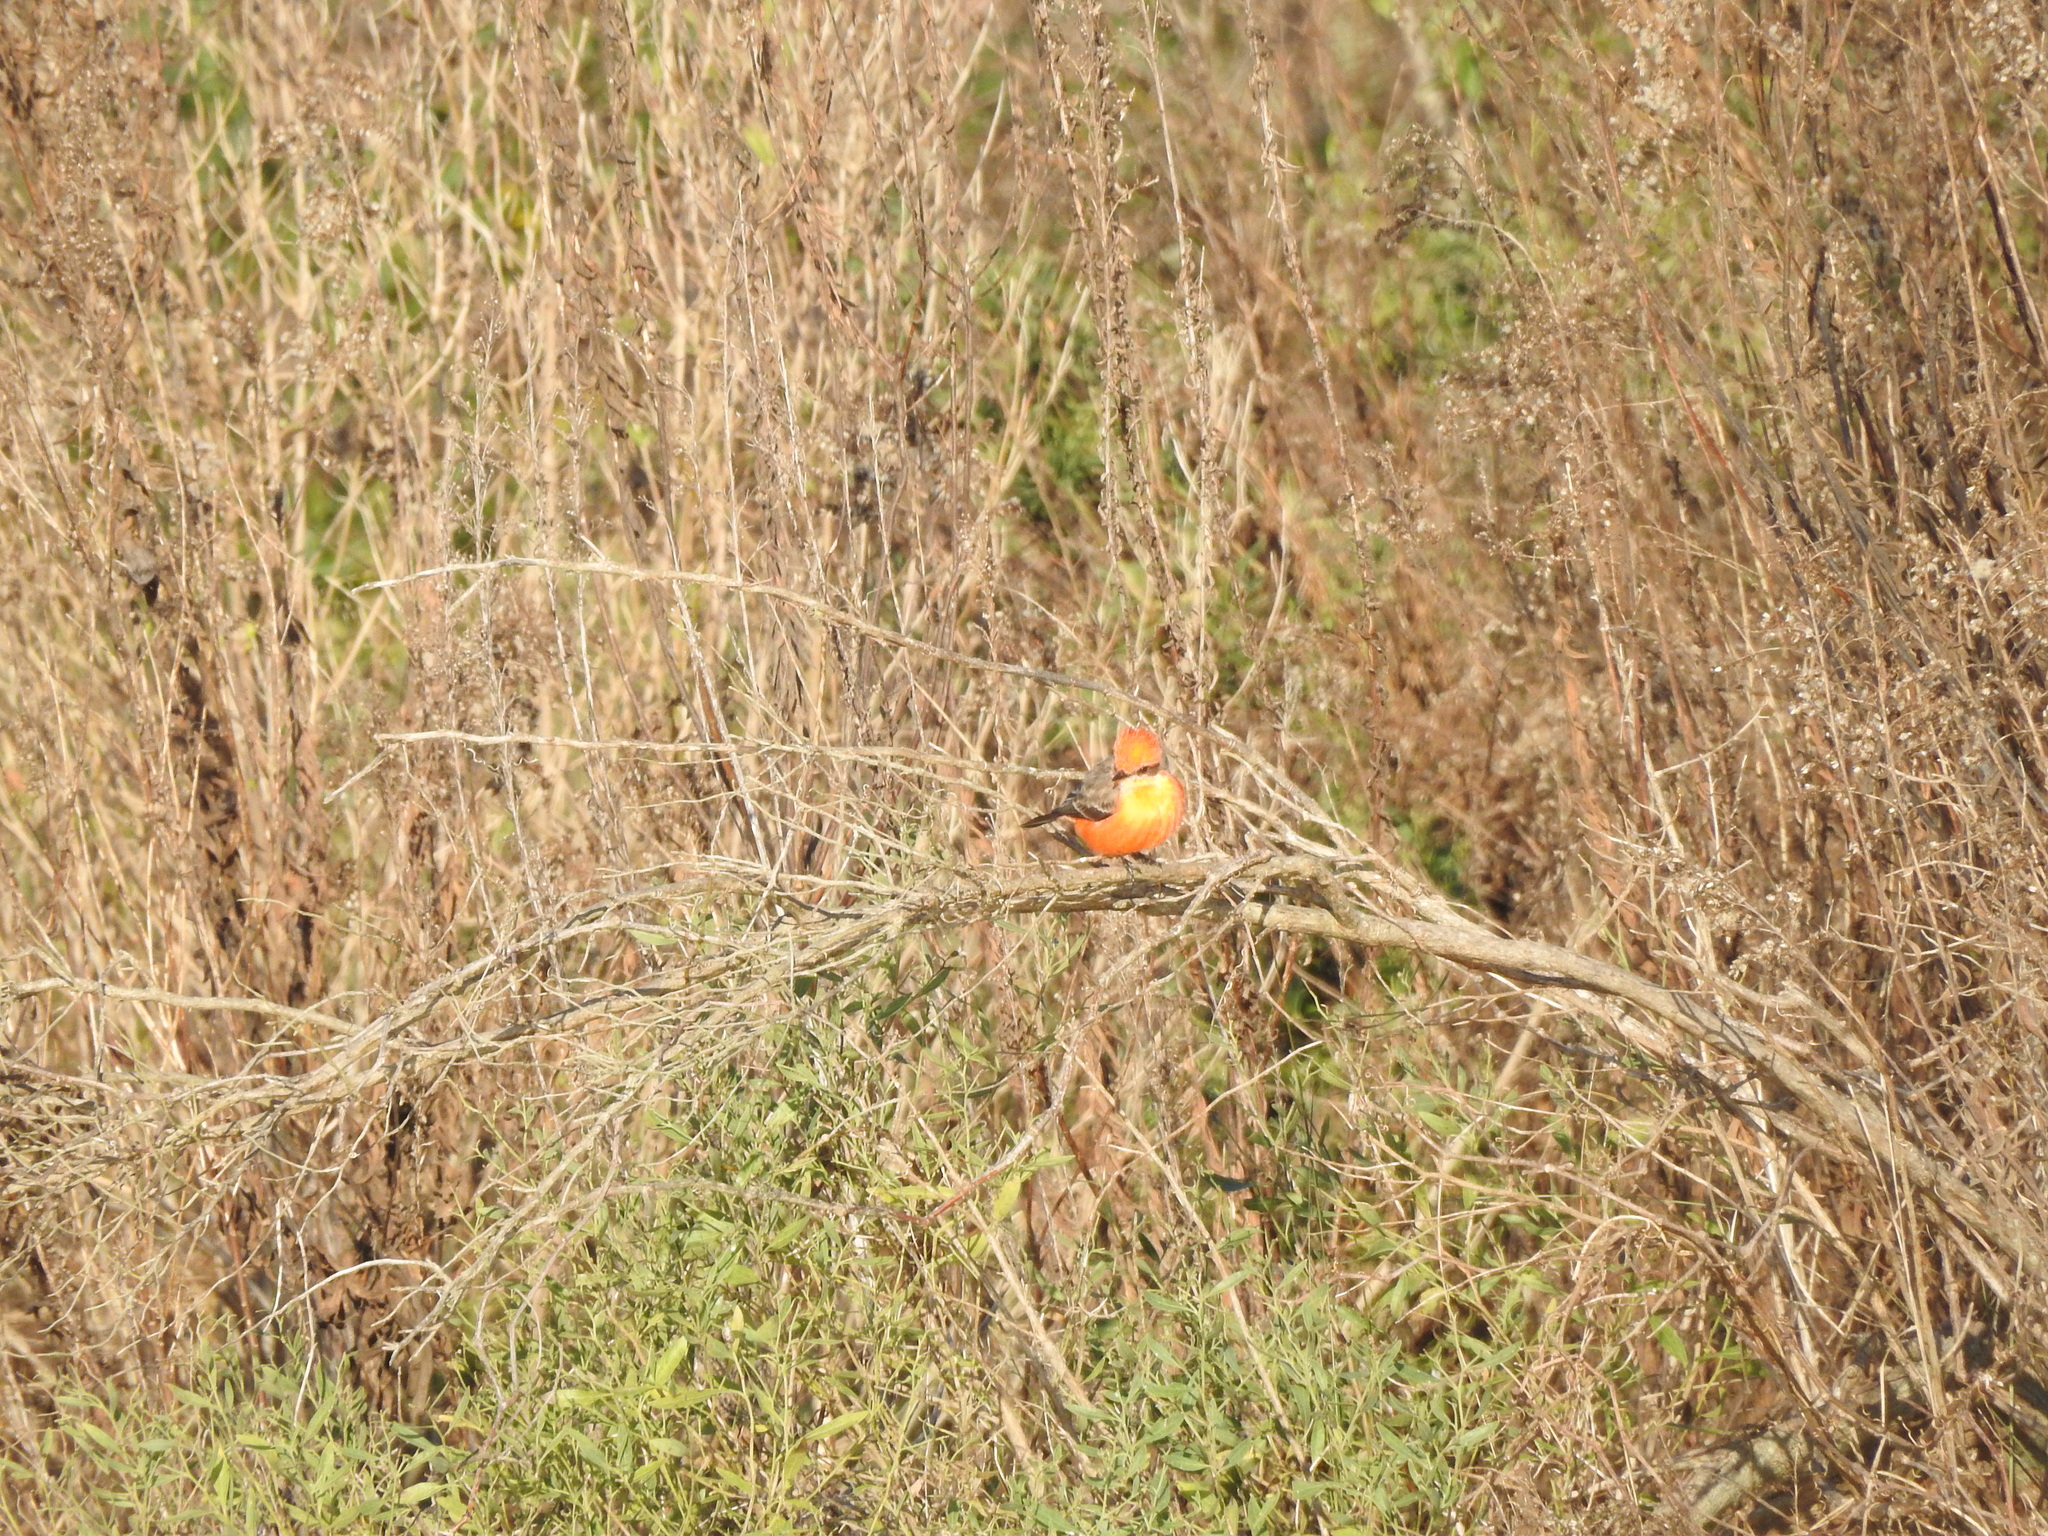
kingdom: Animalia
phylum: Chordata
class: Aves
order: Passeriformes
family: Tyrannidae
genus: Pyrocephalus
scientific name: Pyrocephalus rubinus
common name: Vermilion flycatcher
